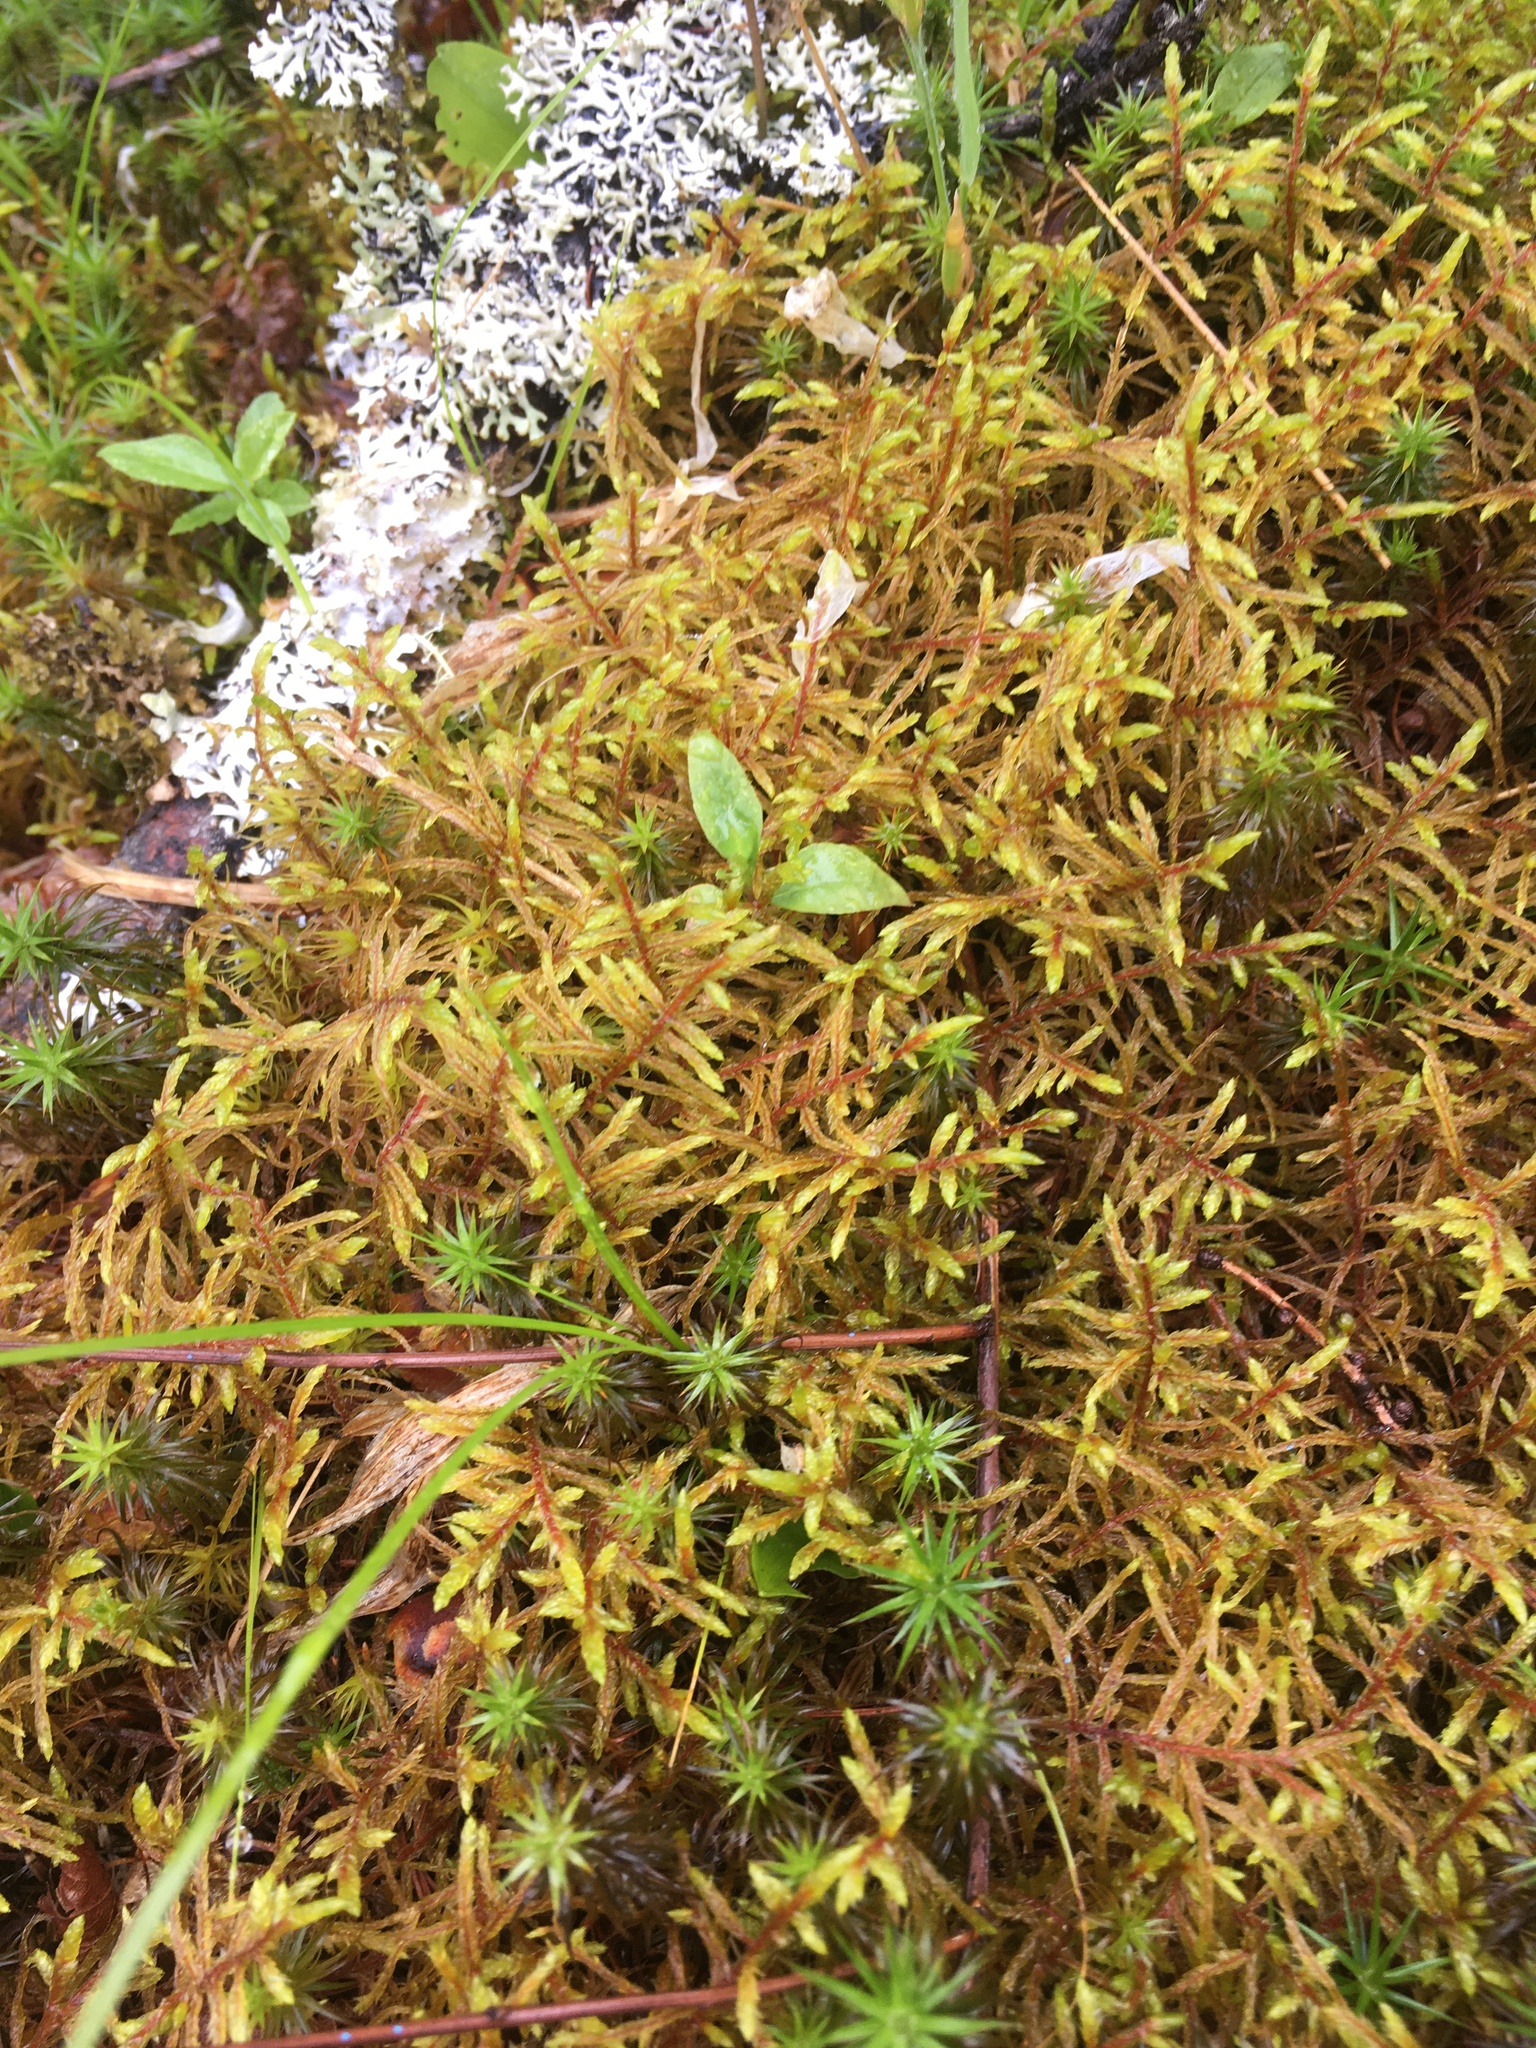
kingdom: Plantae
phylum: Bryophyta
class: Bryopsida
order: Hypnales
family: Hylocomiaceae
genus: Pleurozium
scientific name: Pleurozium schreberi
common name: Red-stemmed feather moss
